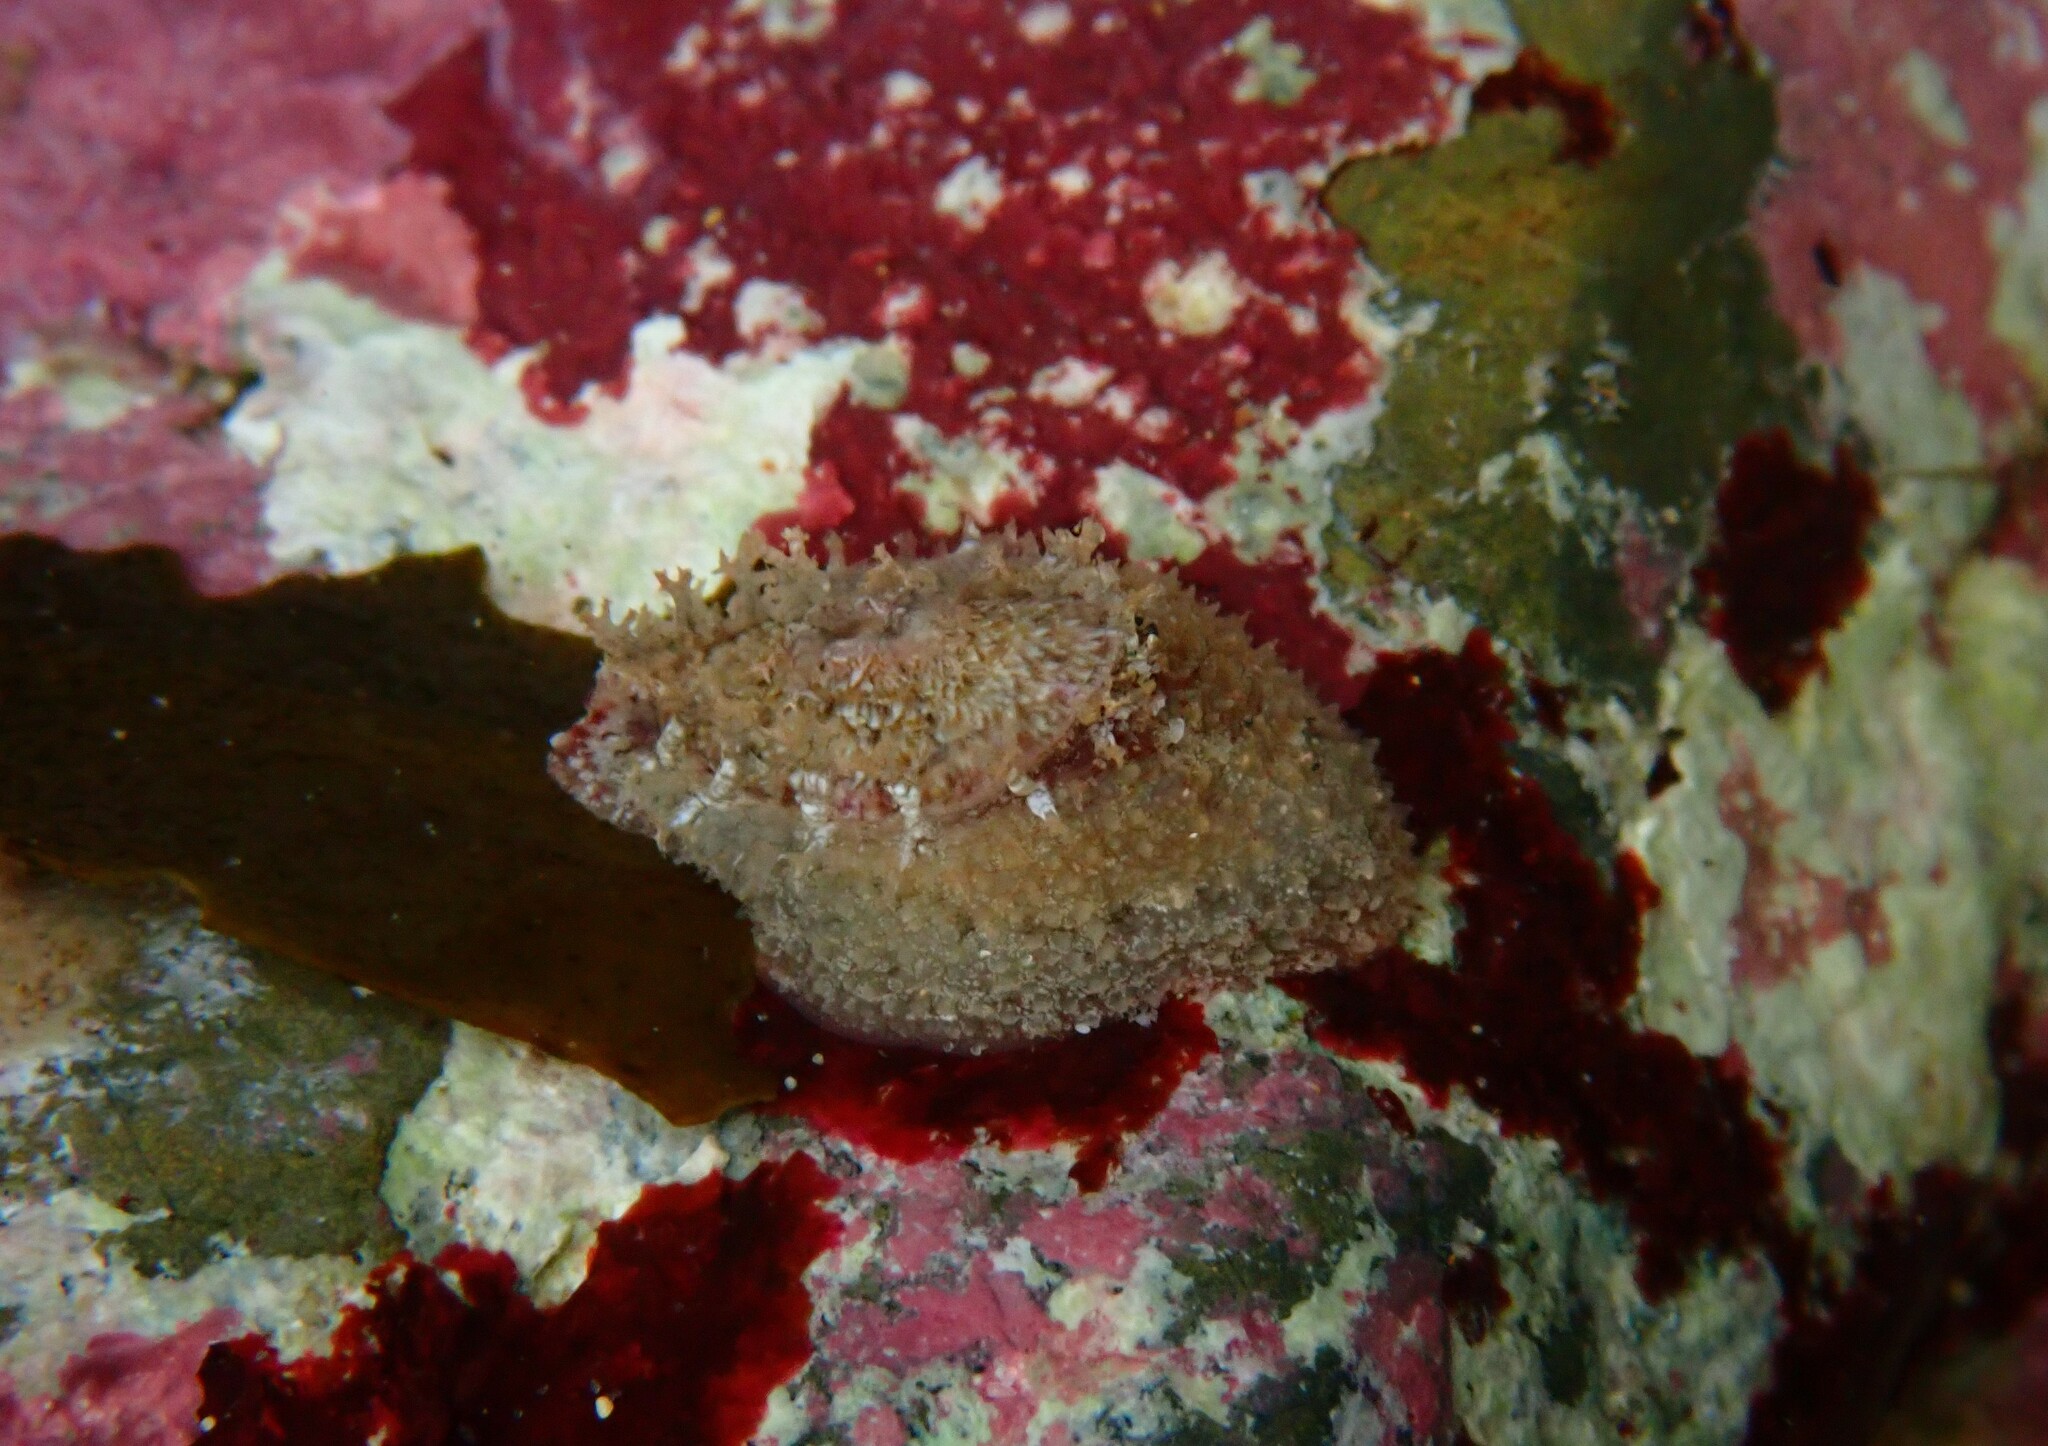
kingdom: Animalia
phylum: Mollusca
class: Gastropoda
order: Lepetellida
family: Fissurellidae
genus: Amblychilepas
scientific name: Amblychilepas nigrita
